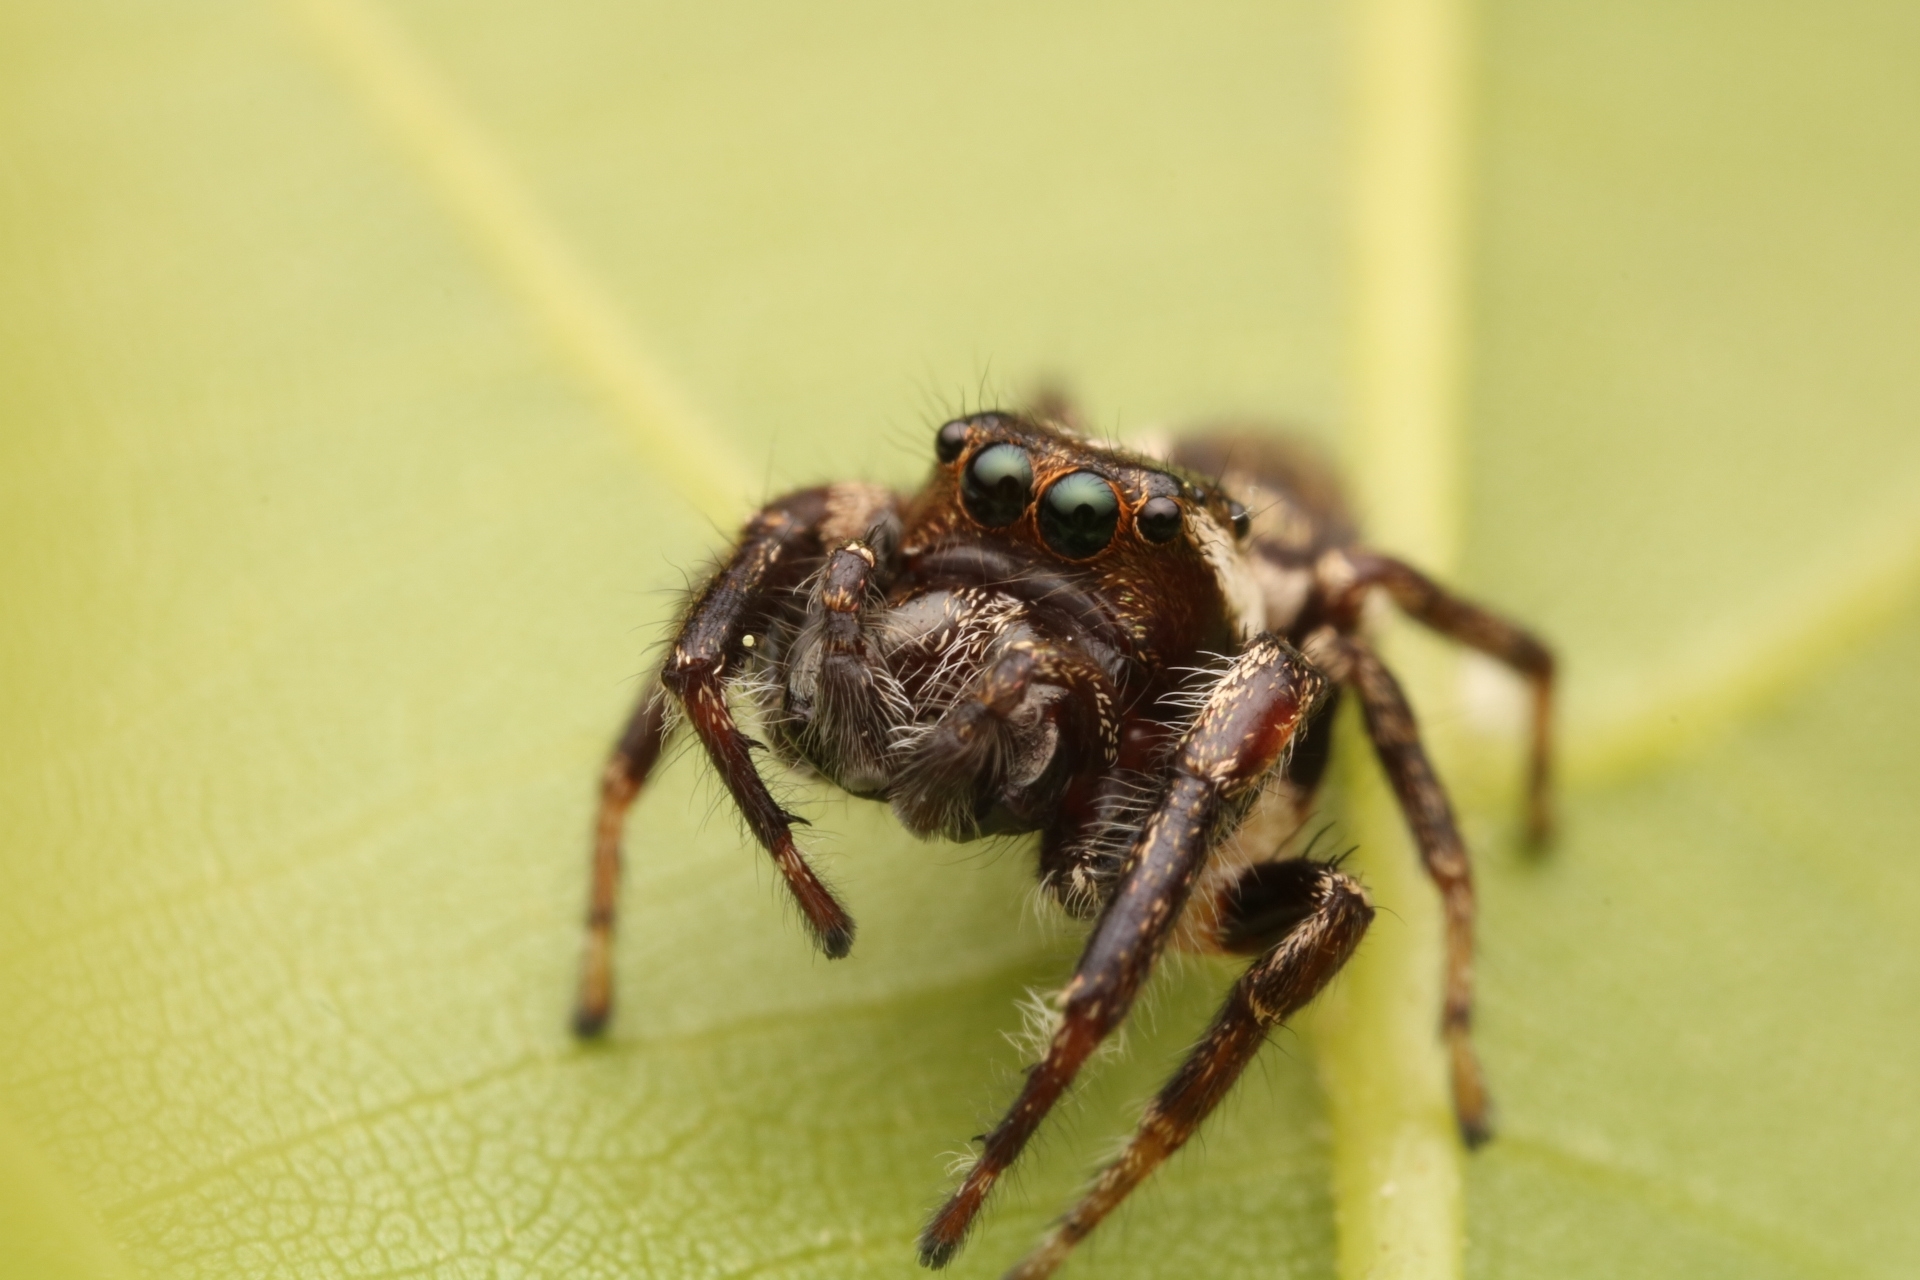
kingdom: Animalia
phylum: Arthropoda
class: Arachnida
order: Araneae
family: Salticidae
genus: Eris
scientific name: Eris militaris
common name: Bronze jumper
